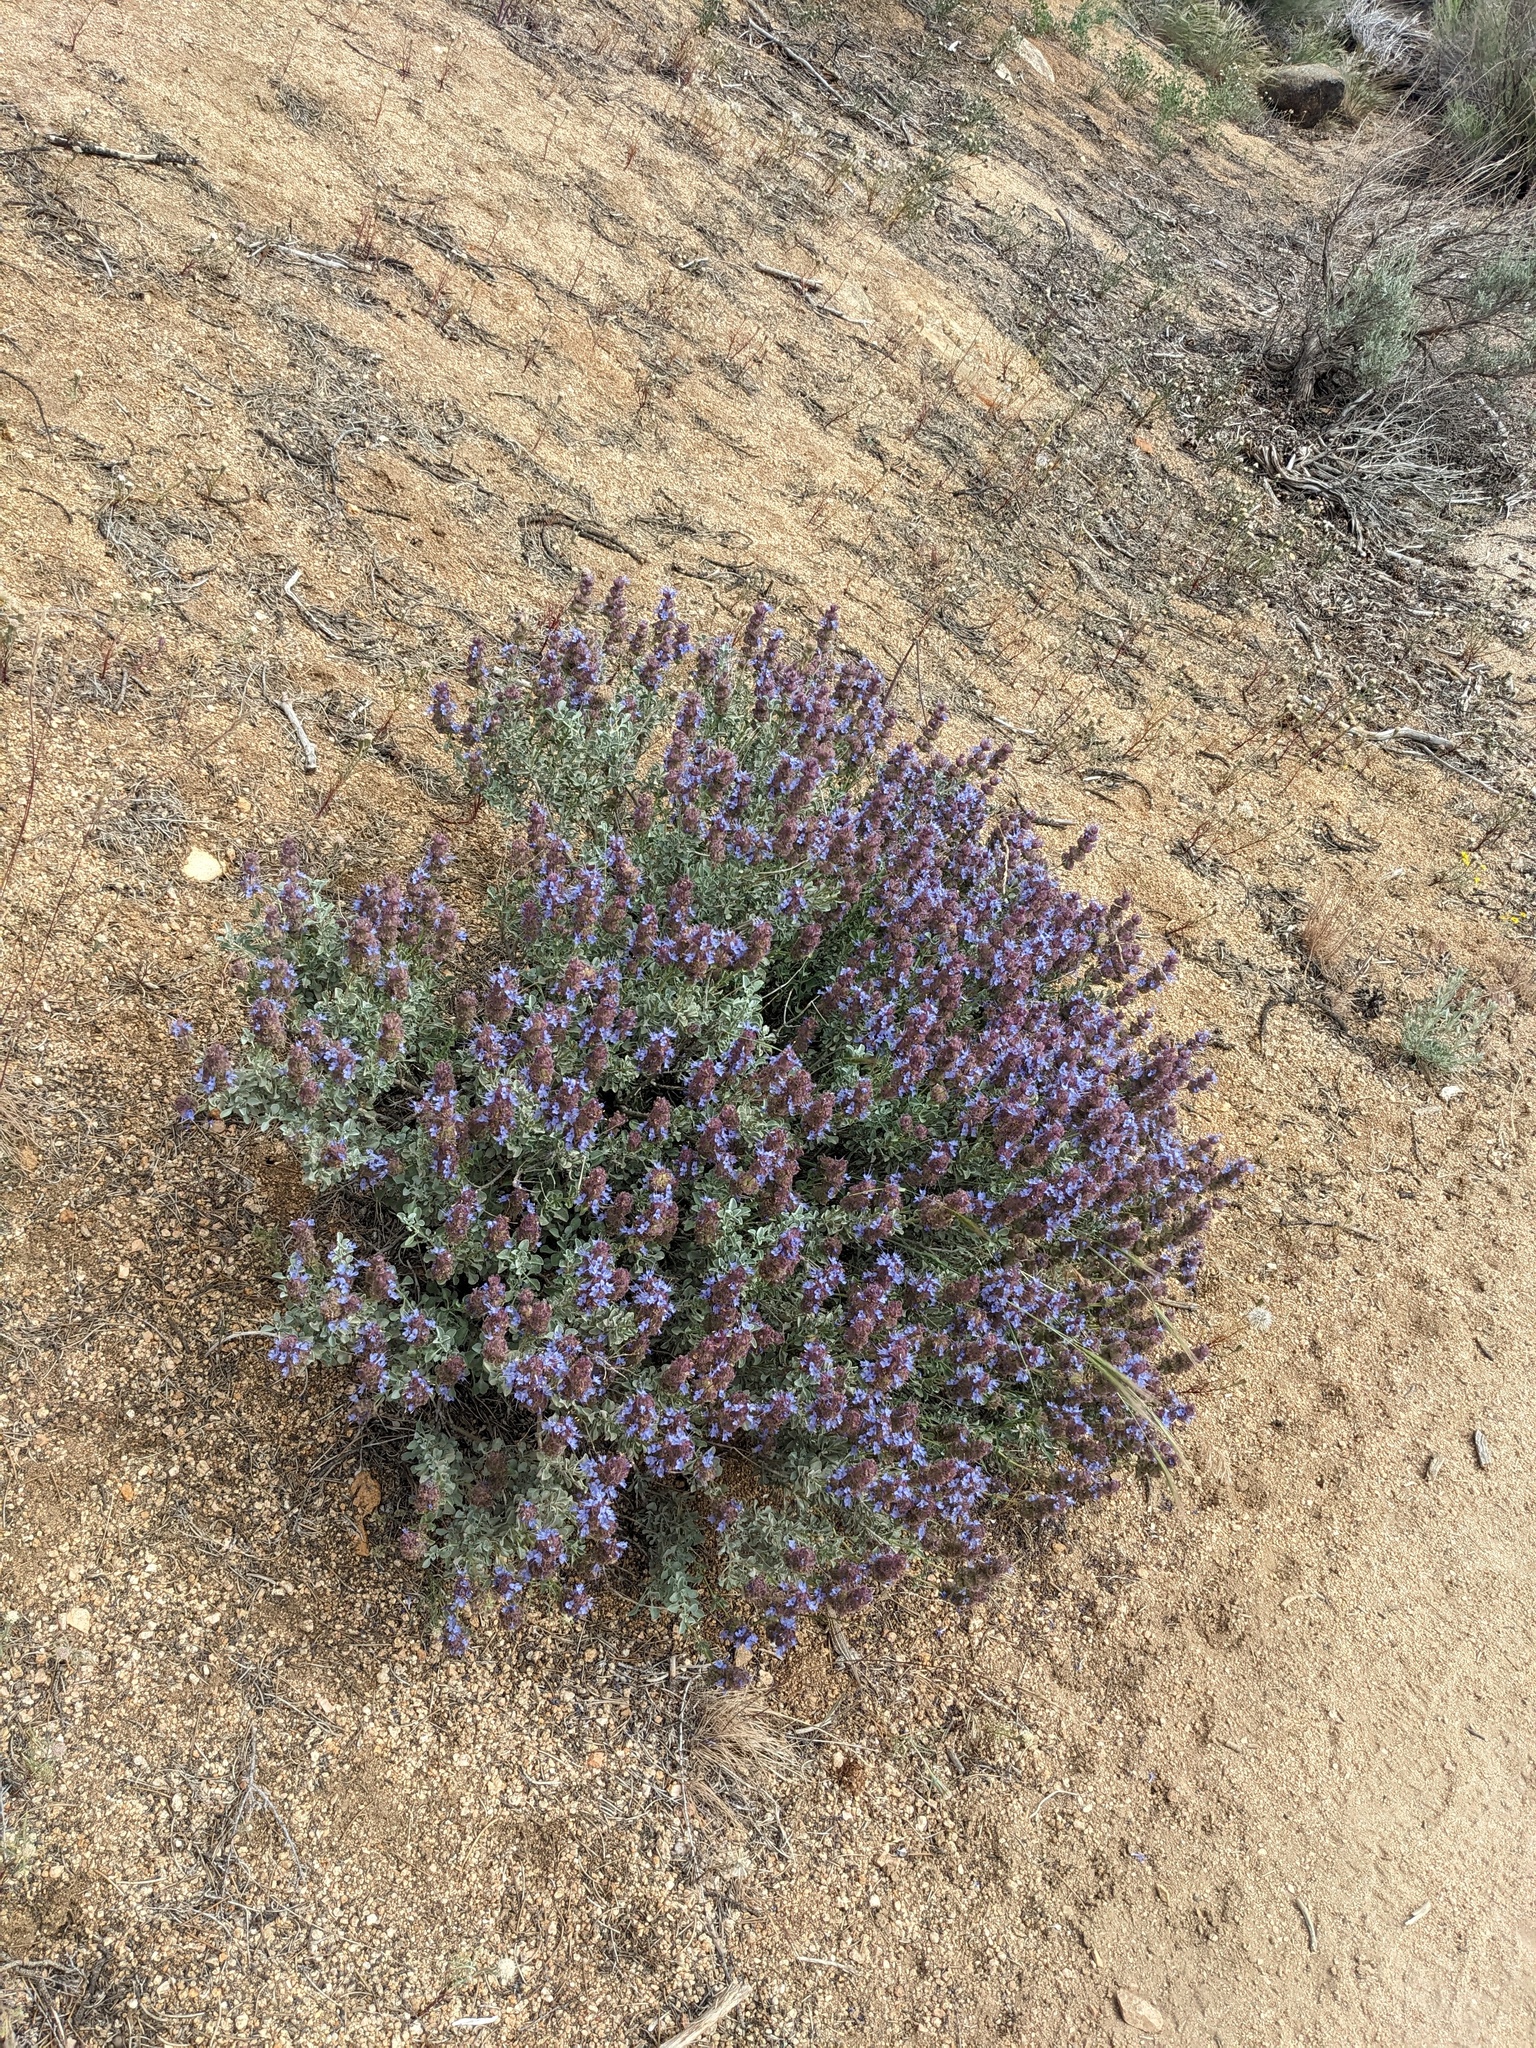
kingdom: Plantae
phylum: Tracheophyta
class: Magnoliopsida
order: Lamiales
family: Lamiaceae
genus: Salvia
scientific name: Salvia dorrii
